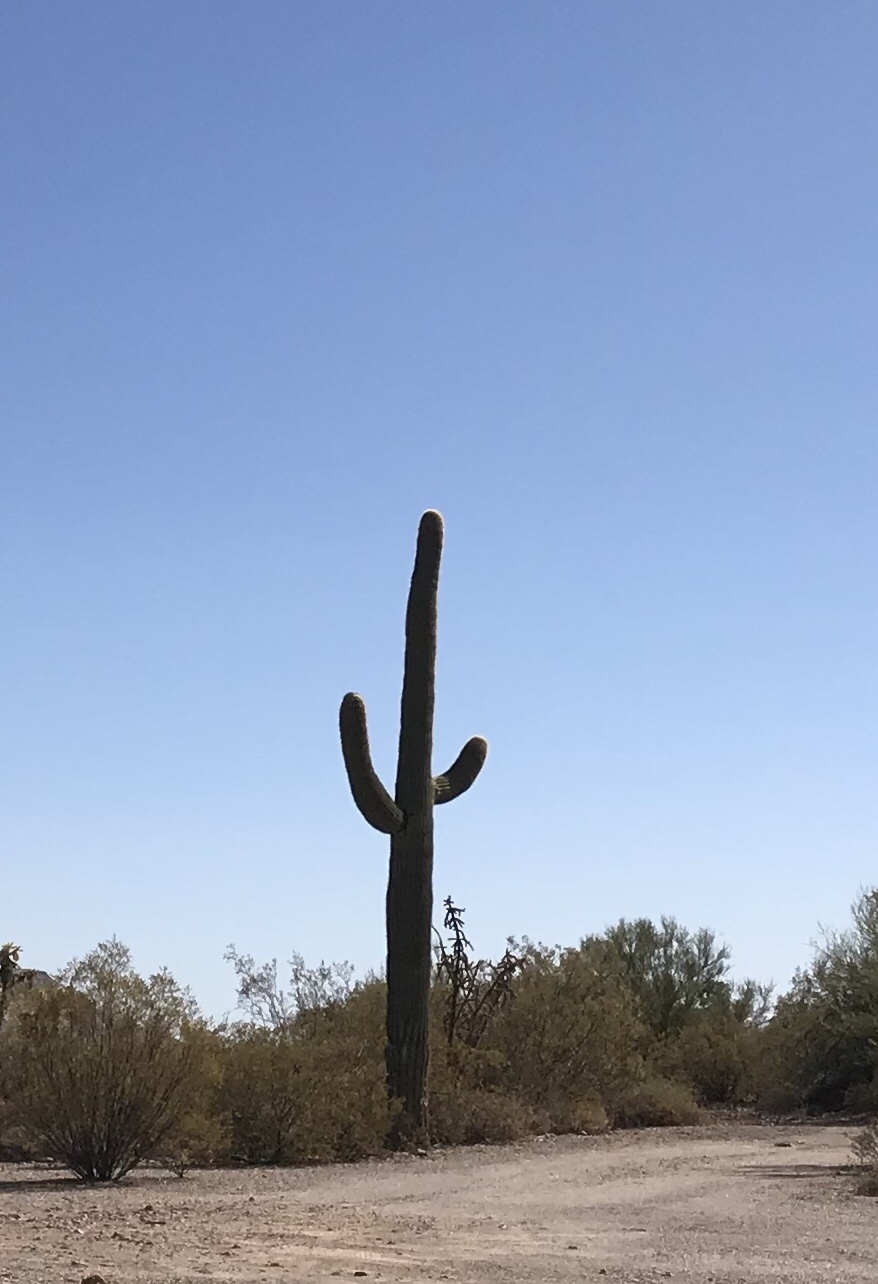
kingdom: Plantae
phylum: Tracheophyta
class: Magnoliopsida
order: Caryophyllales
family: Cactaceae
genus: Carnegiea
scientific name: Carnegiea gigantea
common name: Saguaro
